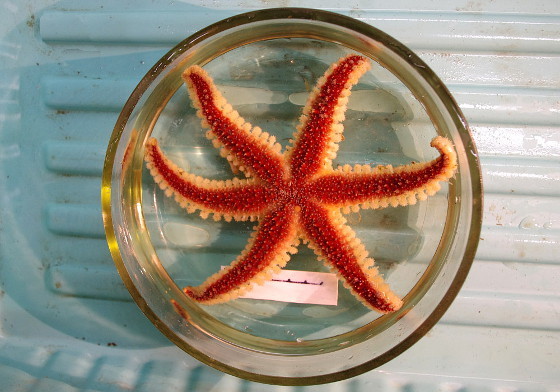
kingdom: Animalia
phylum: Echinodermata
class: Asteroidea
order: Forcipulatida
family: Asteriidae
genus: Urasterias
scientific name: Urasterias lincki
